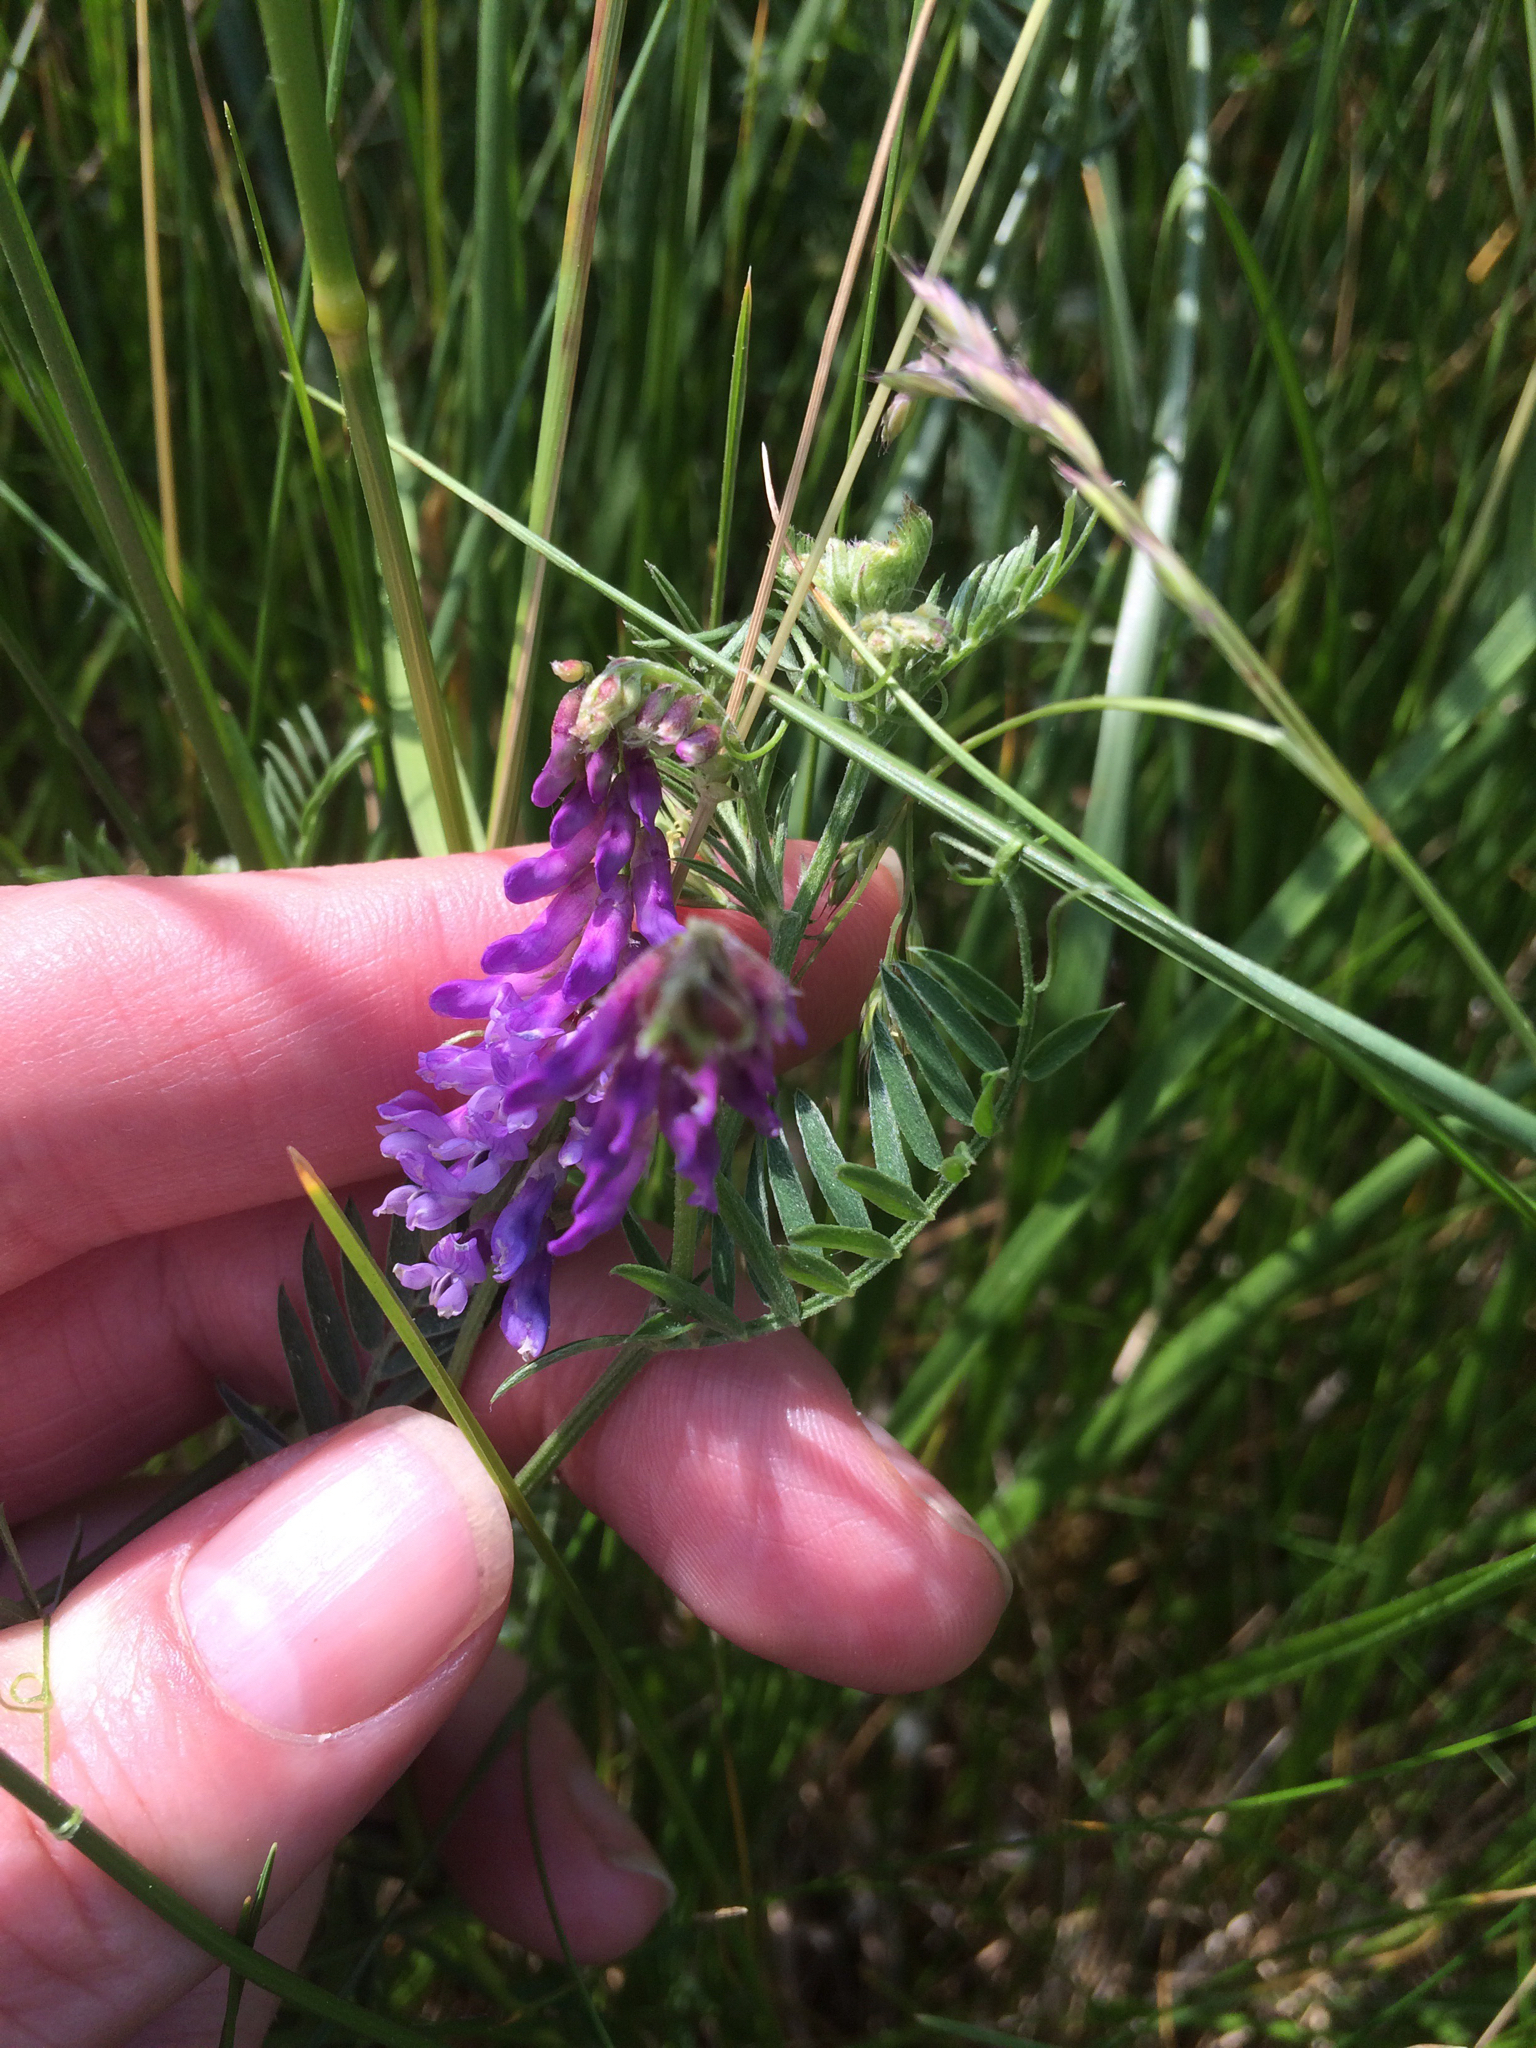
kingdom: Plantae
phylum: Tracheophyta
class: Magnoliopsida
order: Fabales
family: Fabaceae
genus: Vicia
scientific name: Vicia cracca
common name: Bird vetch
